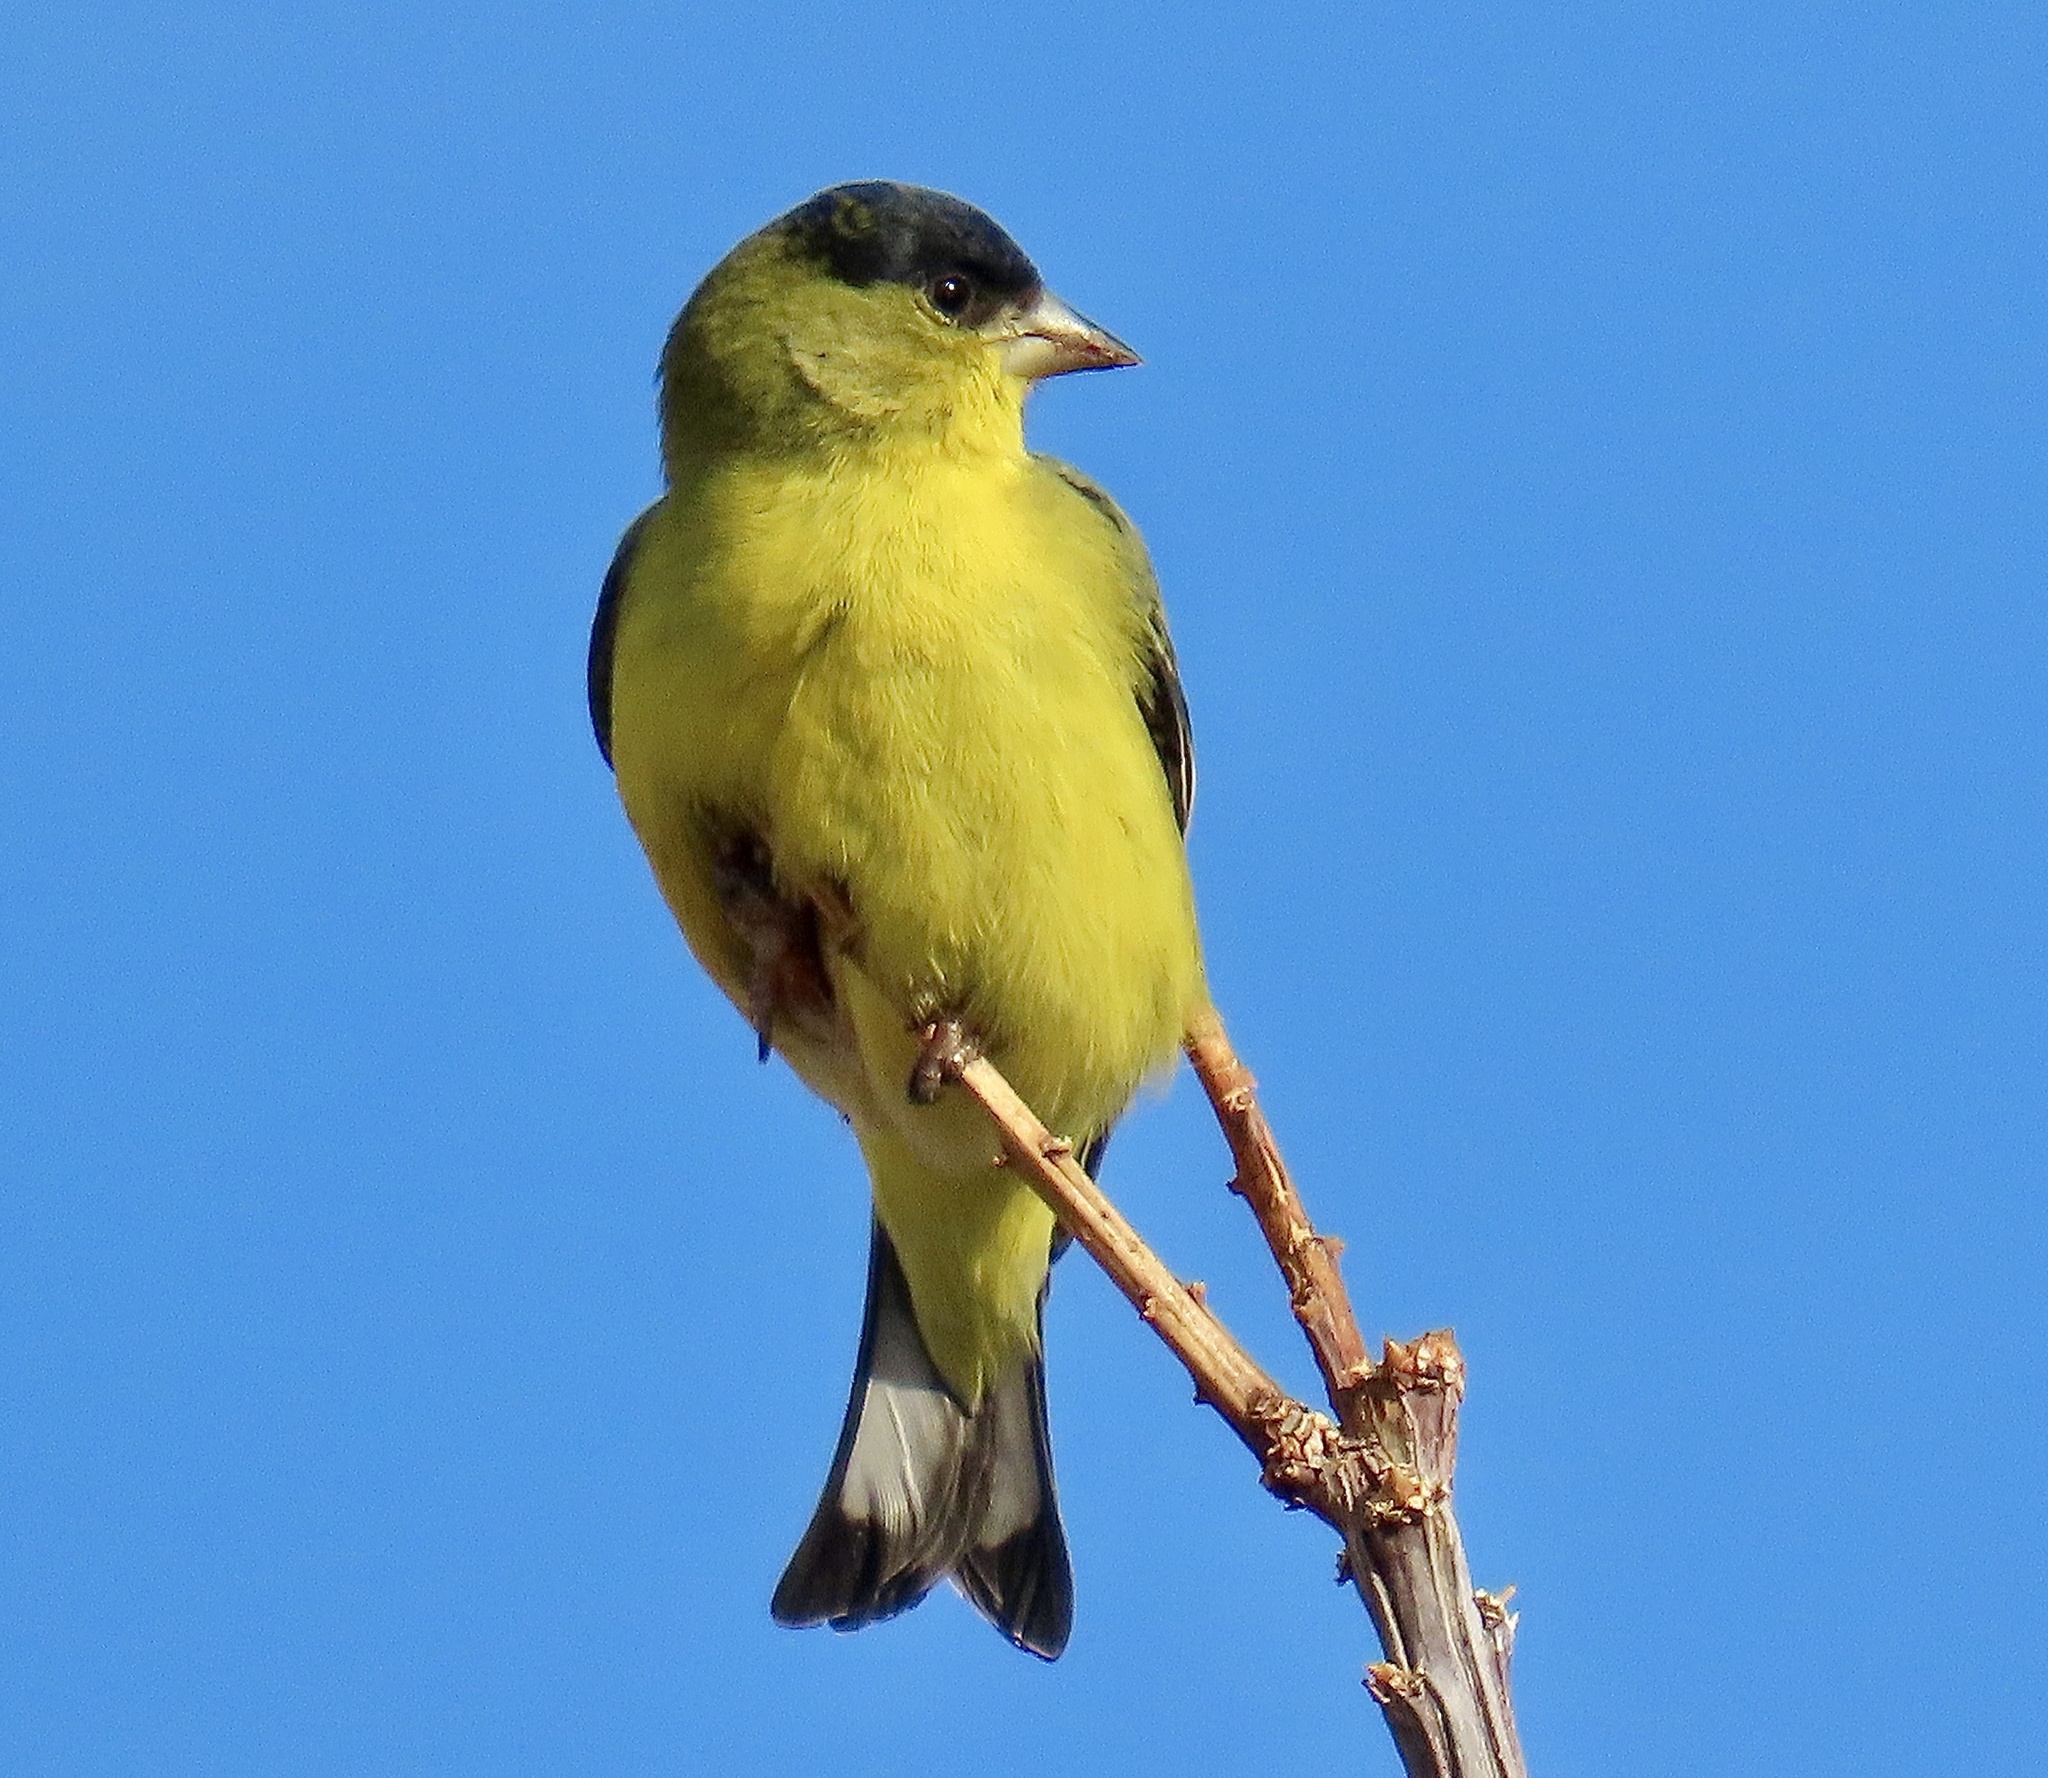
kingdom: Animalia
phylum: Chordata
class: Aves
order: Passeriformes
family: Fringillidae
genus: Spinus
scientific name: Spinus psaltria
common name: Lesser goldfinch
